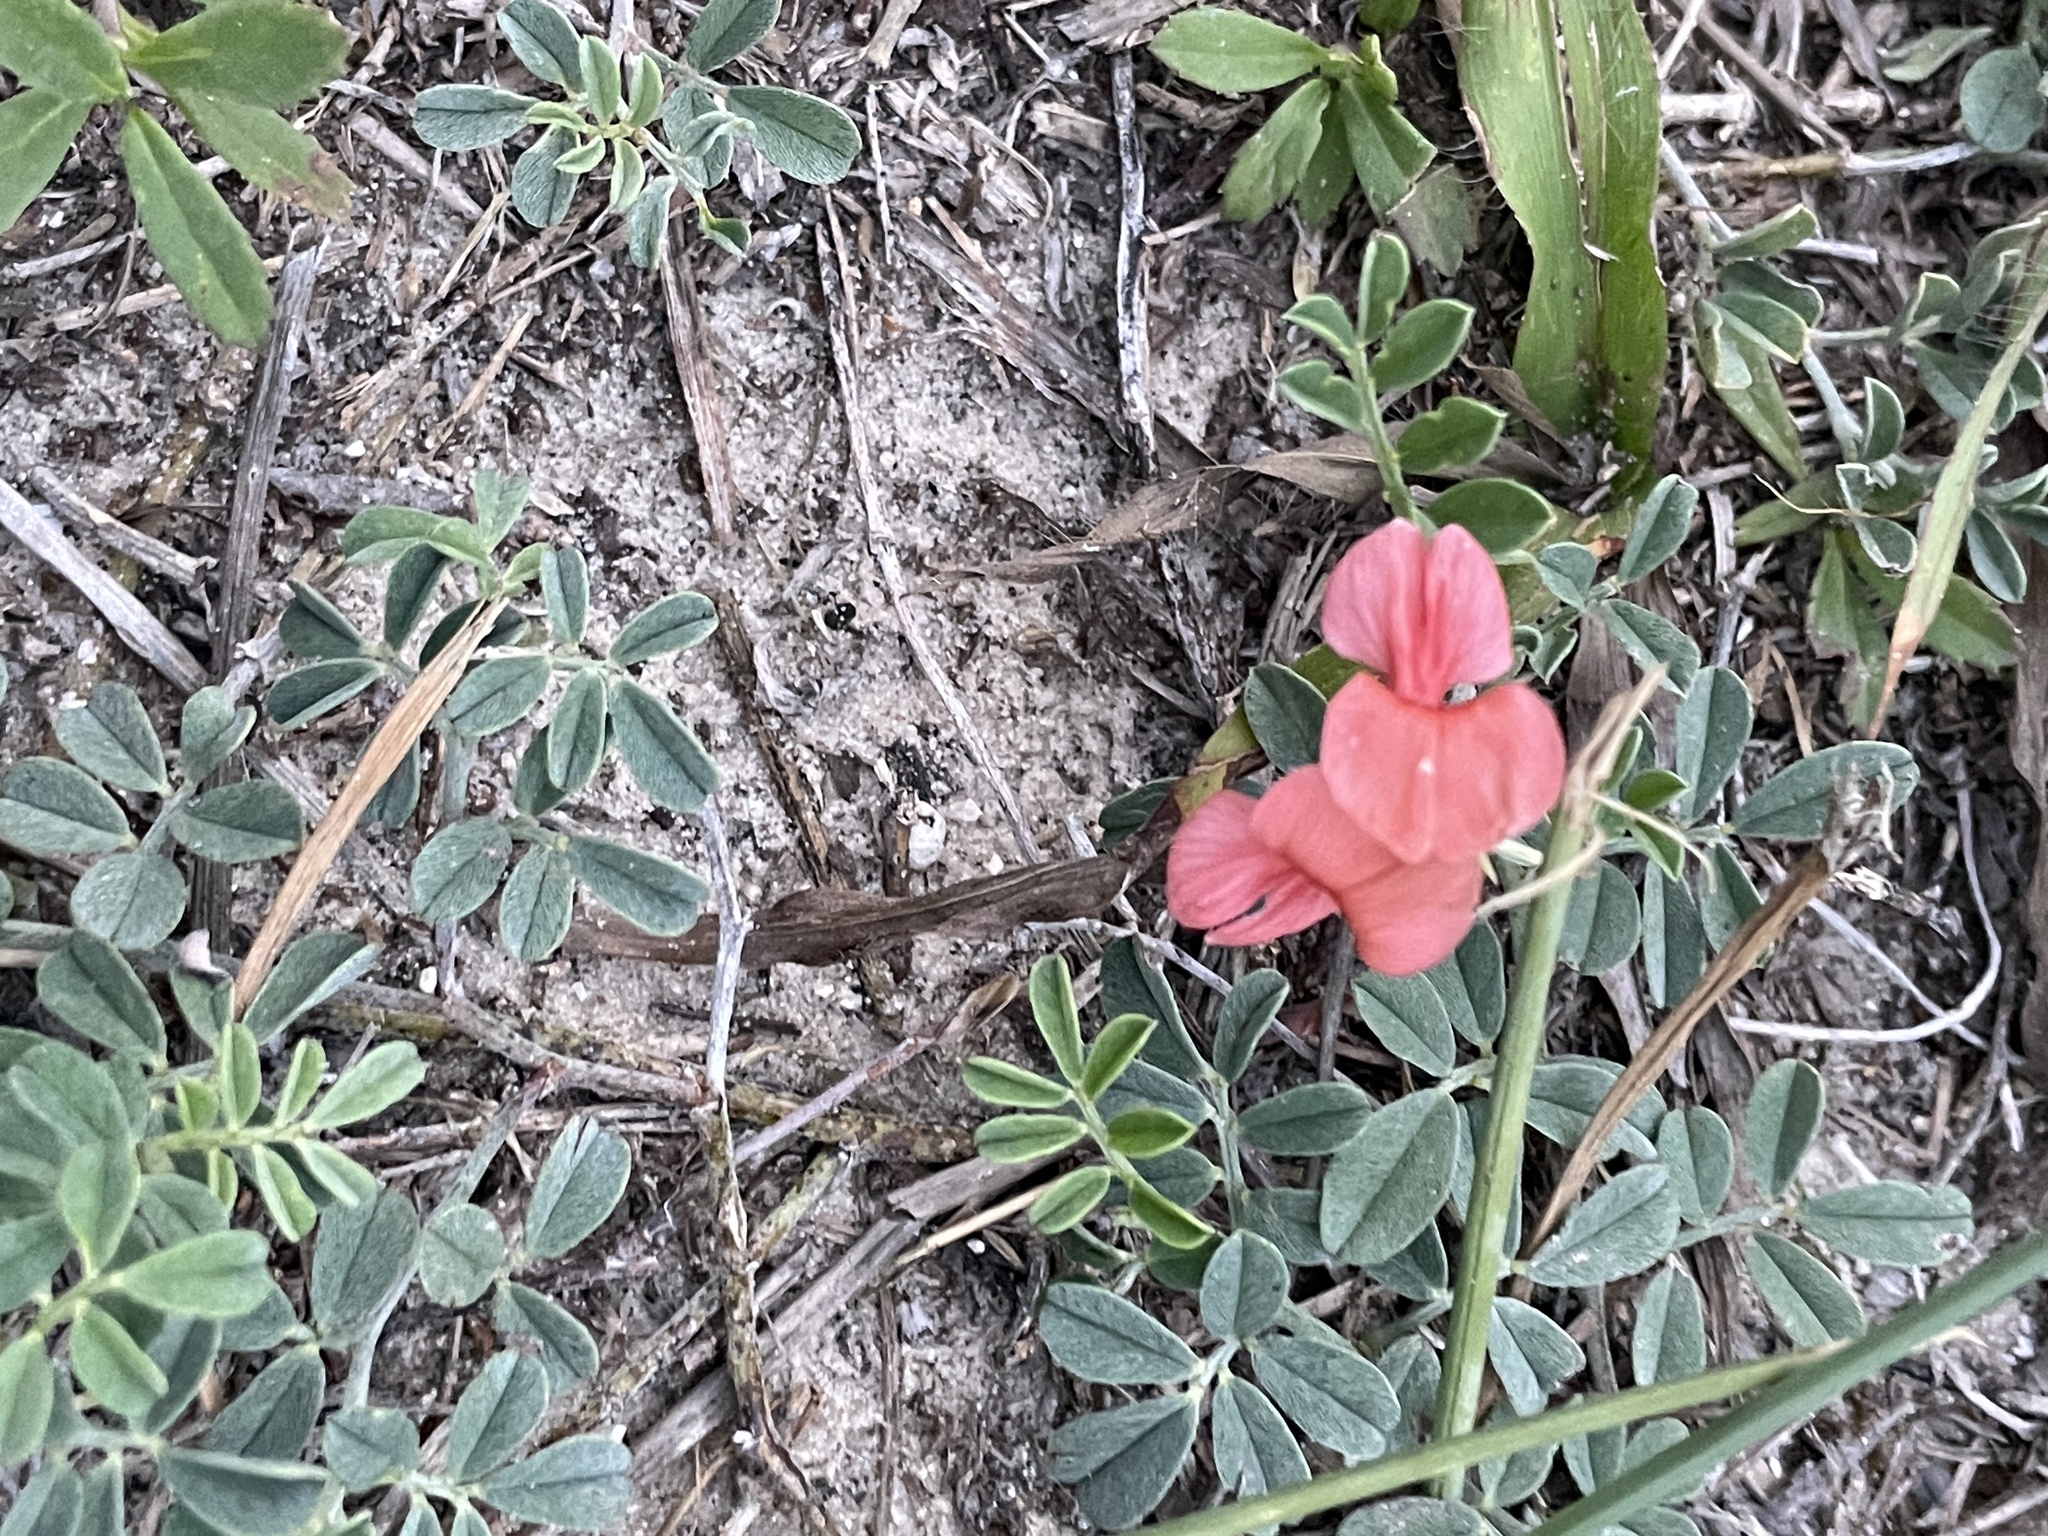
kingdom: Plantae
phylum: Tracheophyta
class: Magnoliopsida
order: Fabales
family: Fabaceae
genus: Indigofera
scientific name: Indigofera miniata
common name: Coast indigo
